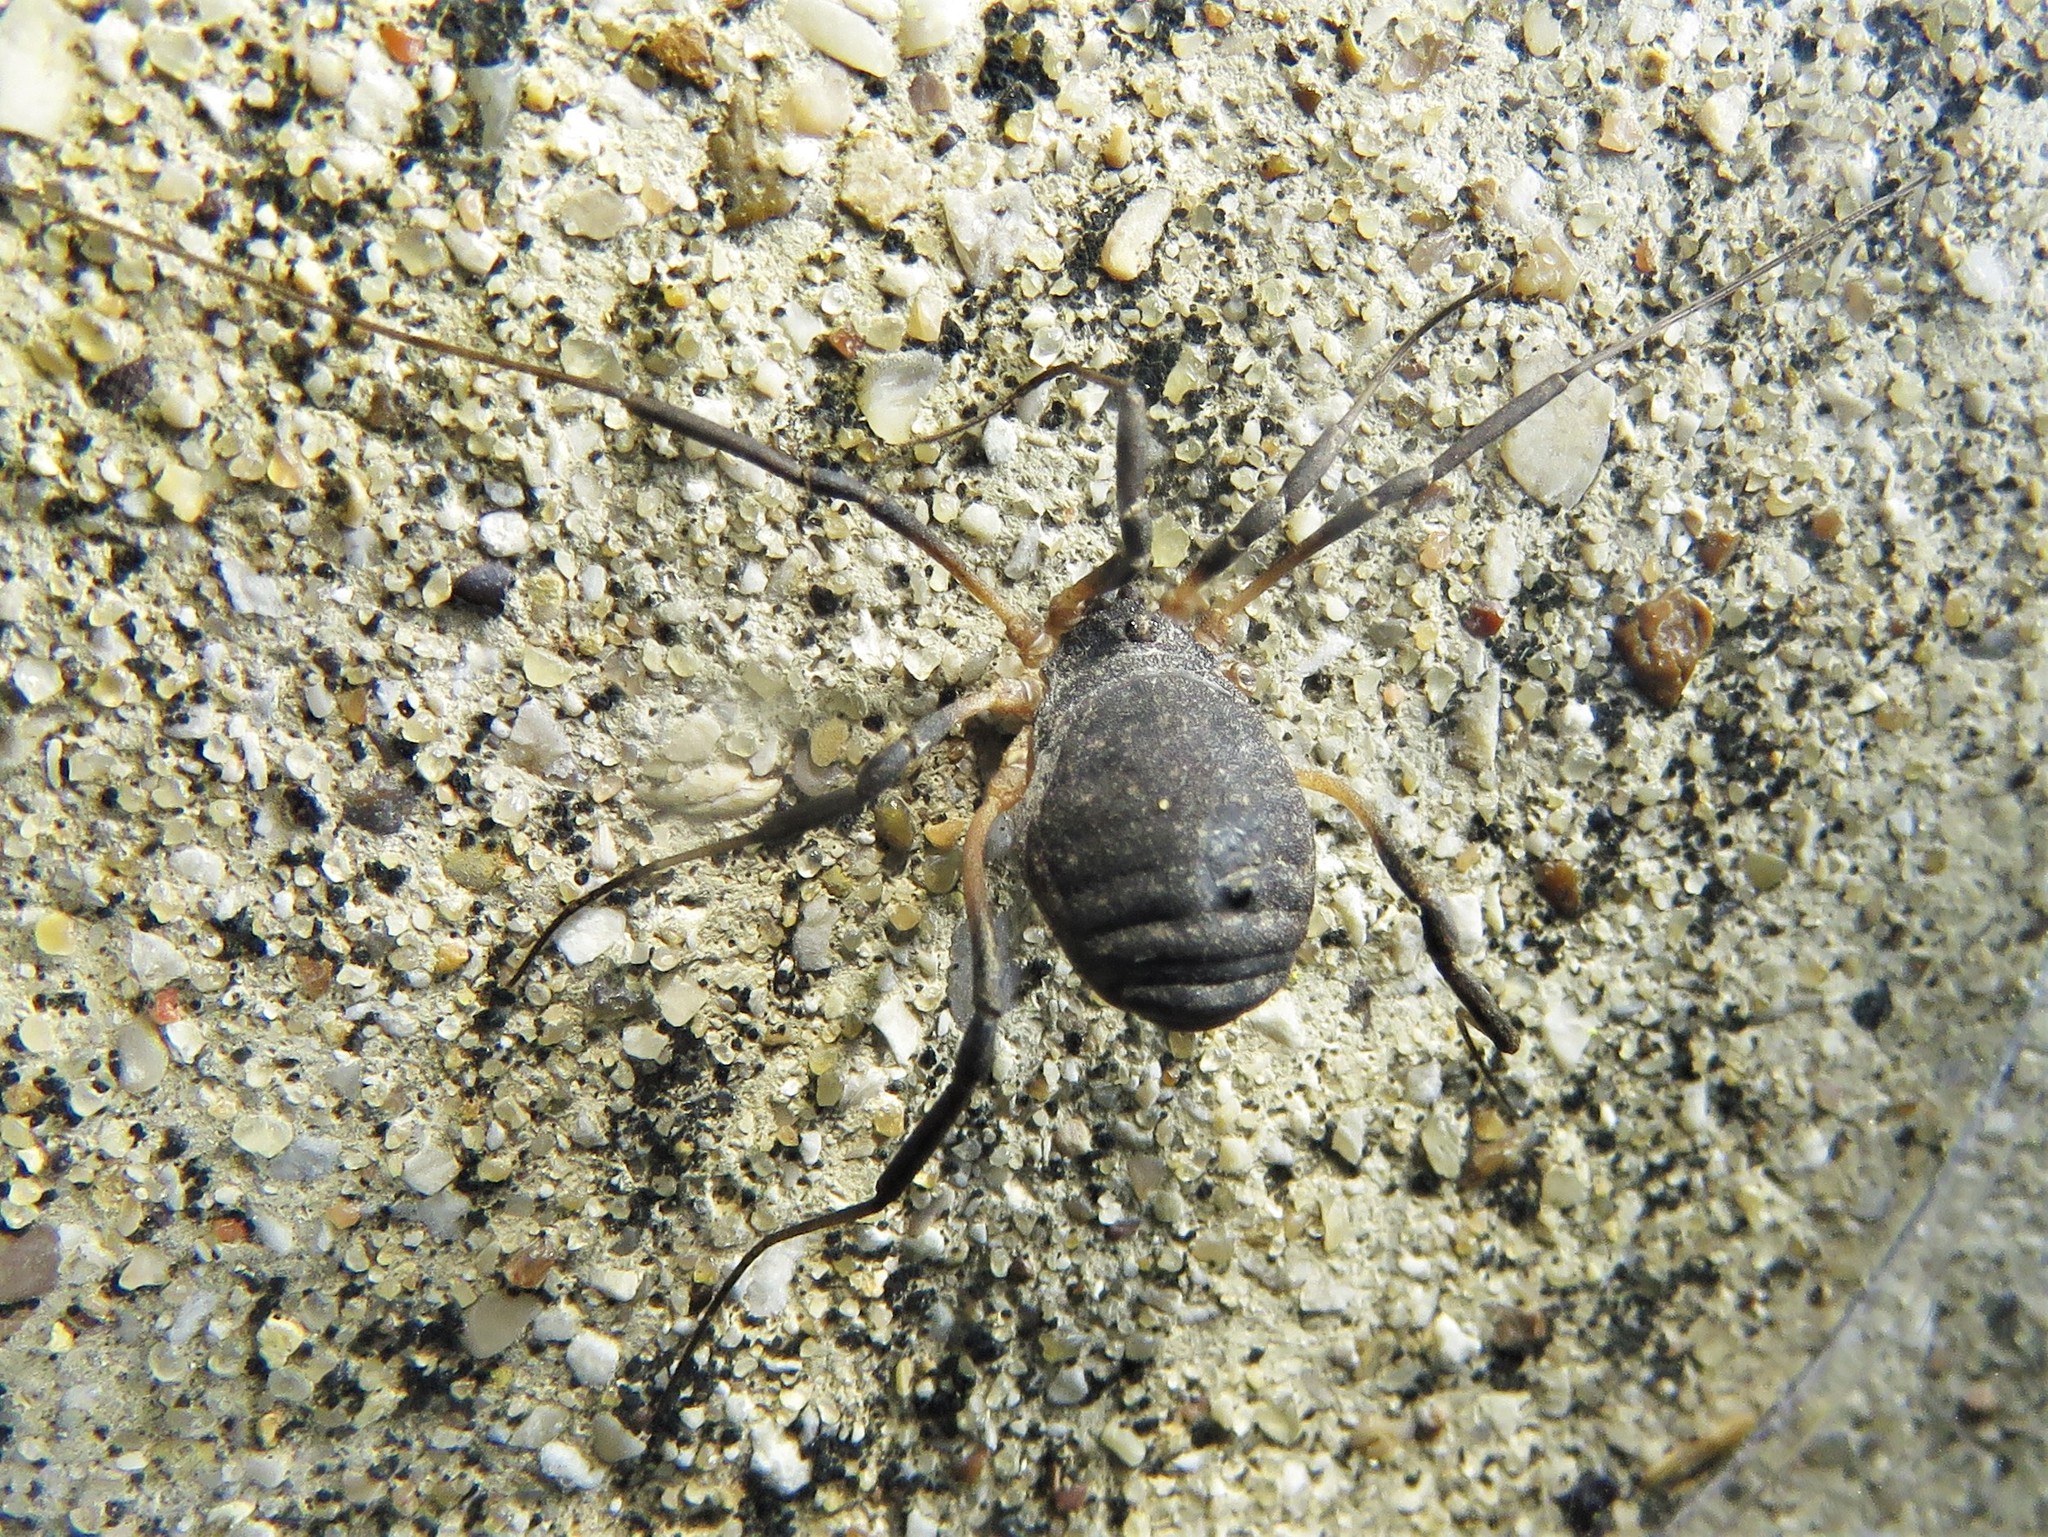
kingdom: Animalia
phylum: Arthropoda
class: Arachnida
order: Opiliones
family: Sclerosomatidae
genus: Eumesosoma
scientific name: Eumesosoma roeweri
